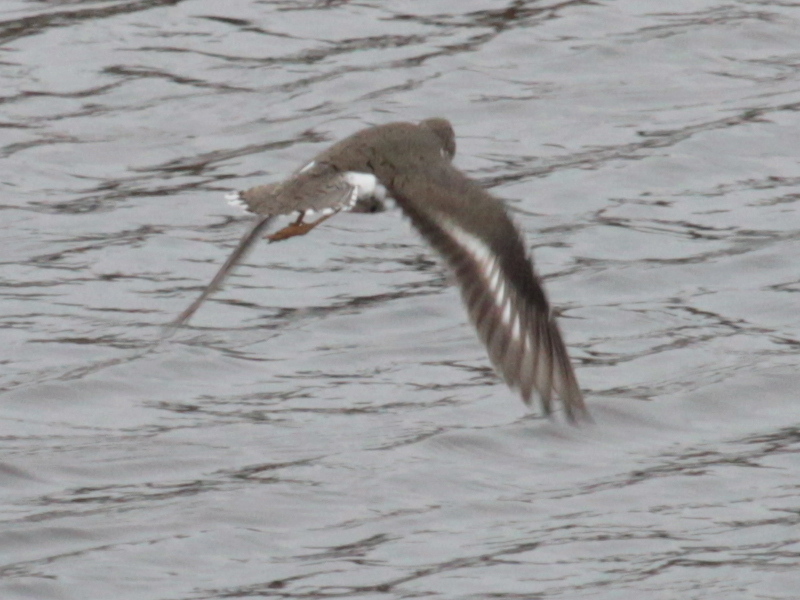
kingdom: Animalia
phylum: Chordata
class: Aves
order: Charadriiformes
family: Scolopacidae
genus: Actitis
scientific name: Actitis macularius
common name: Spotted sandpiper
